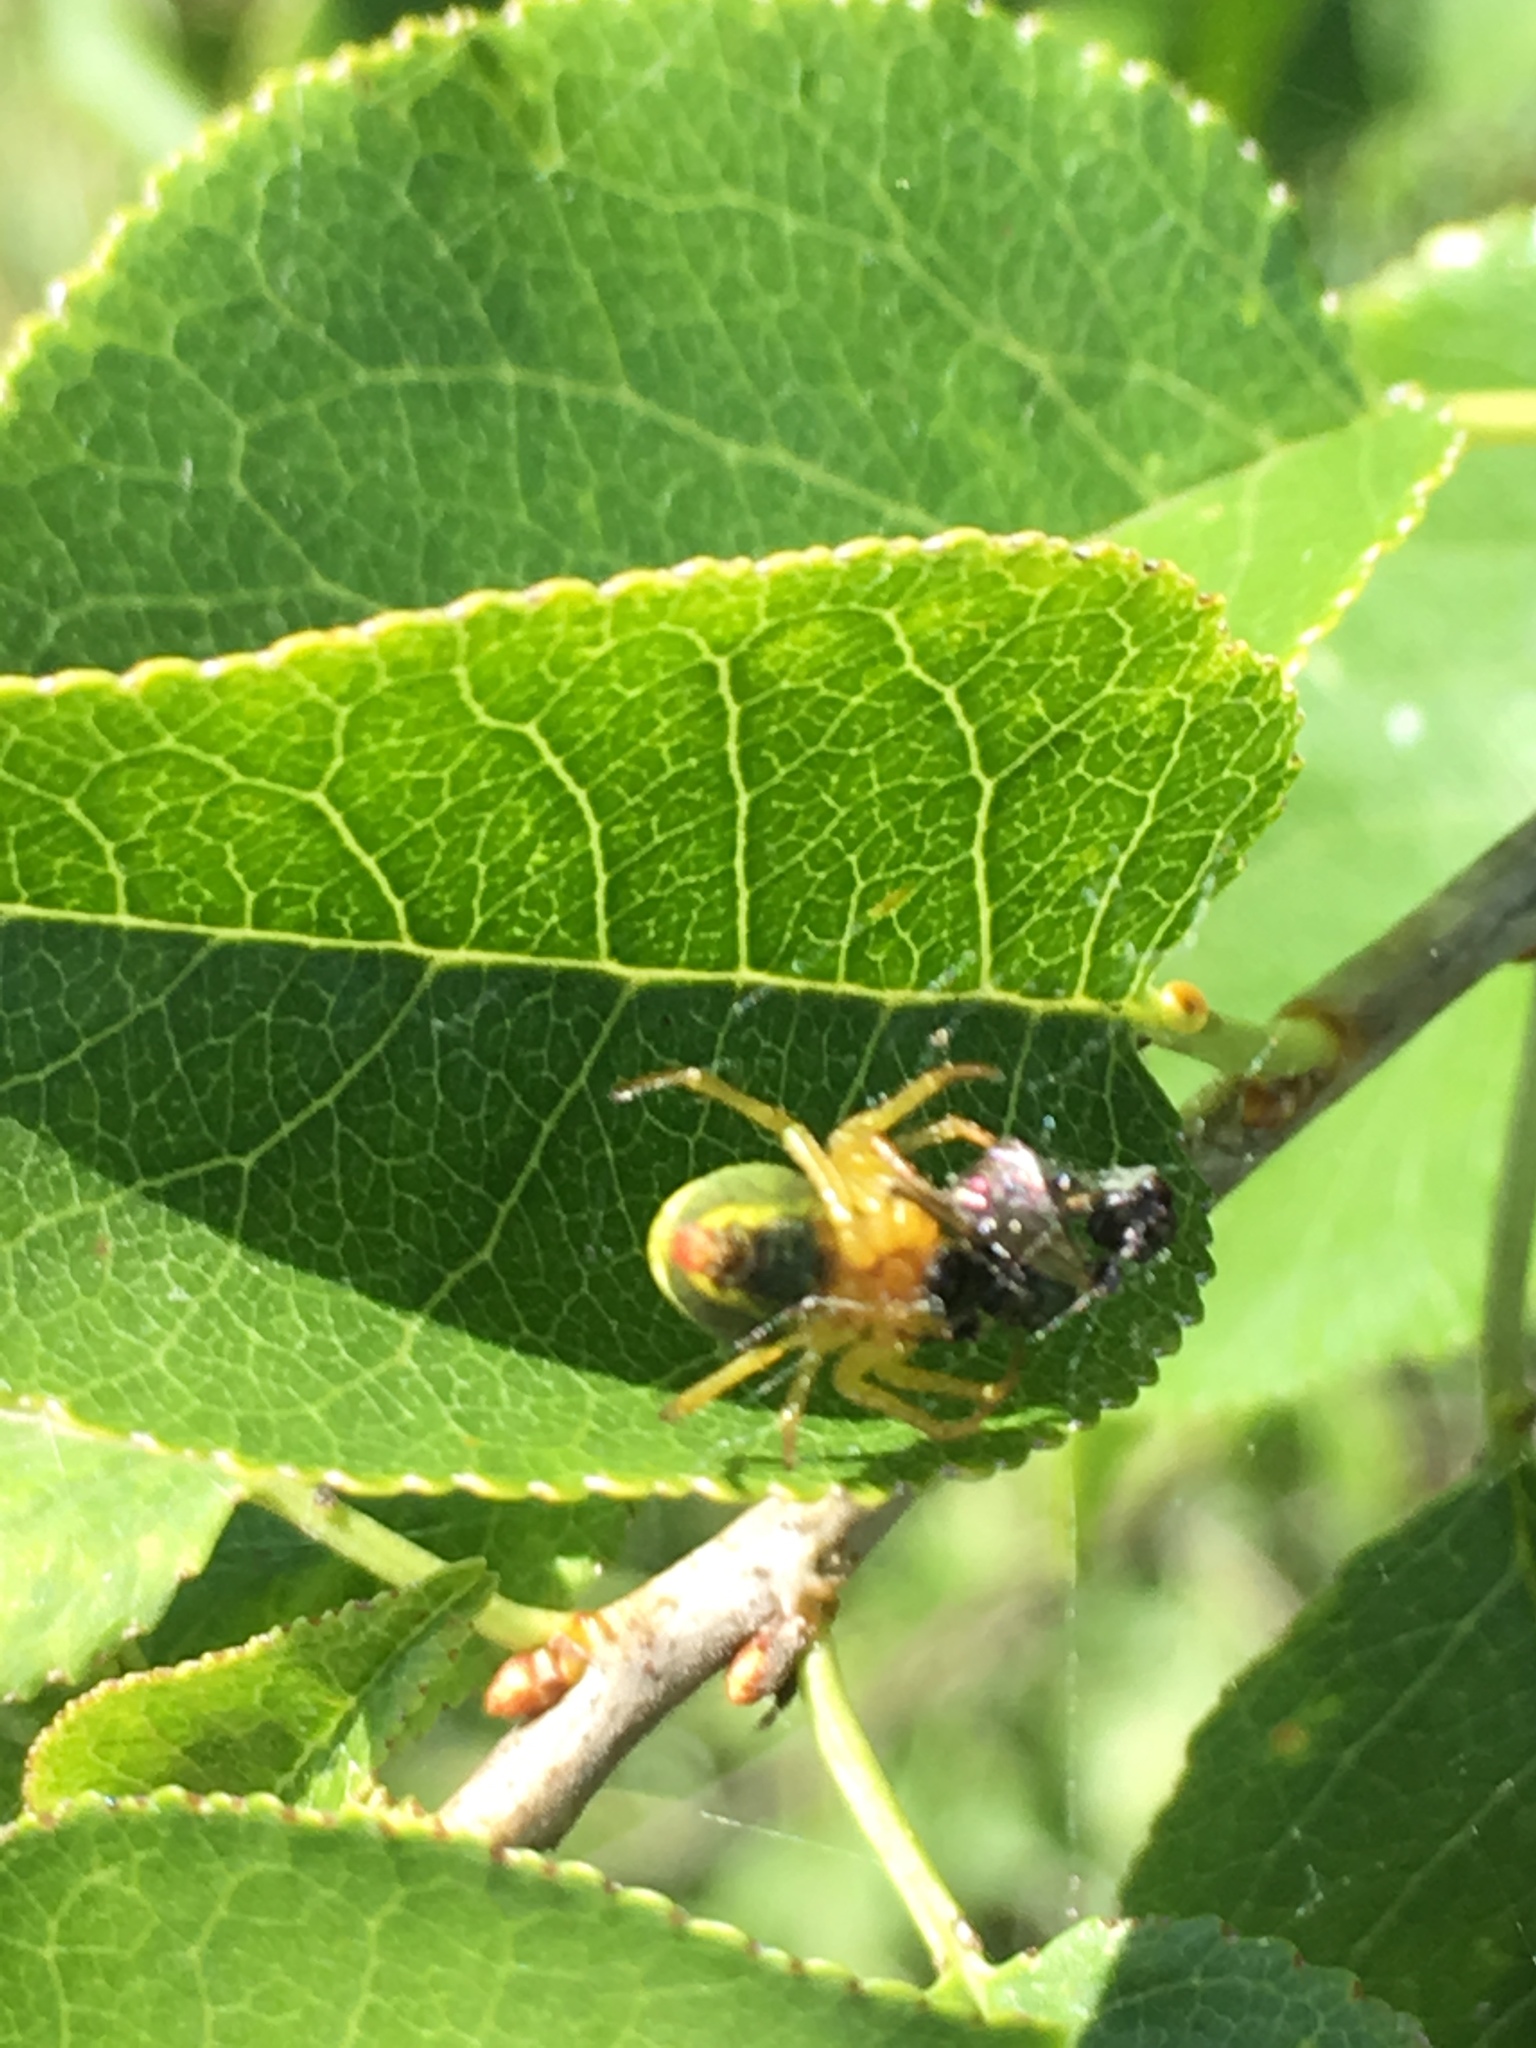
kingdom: Animalia
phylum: Arthropoda
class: Arachnida
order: Araneae
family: Araneidae
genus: Araniella
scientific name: Araniella
